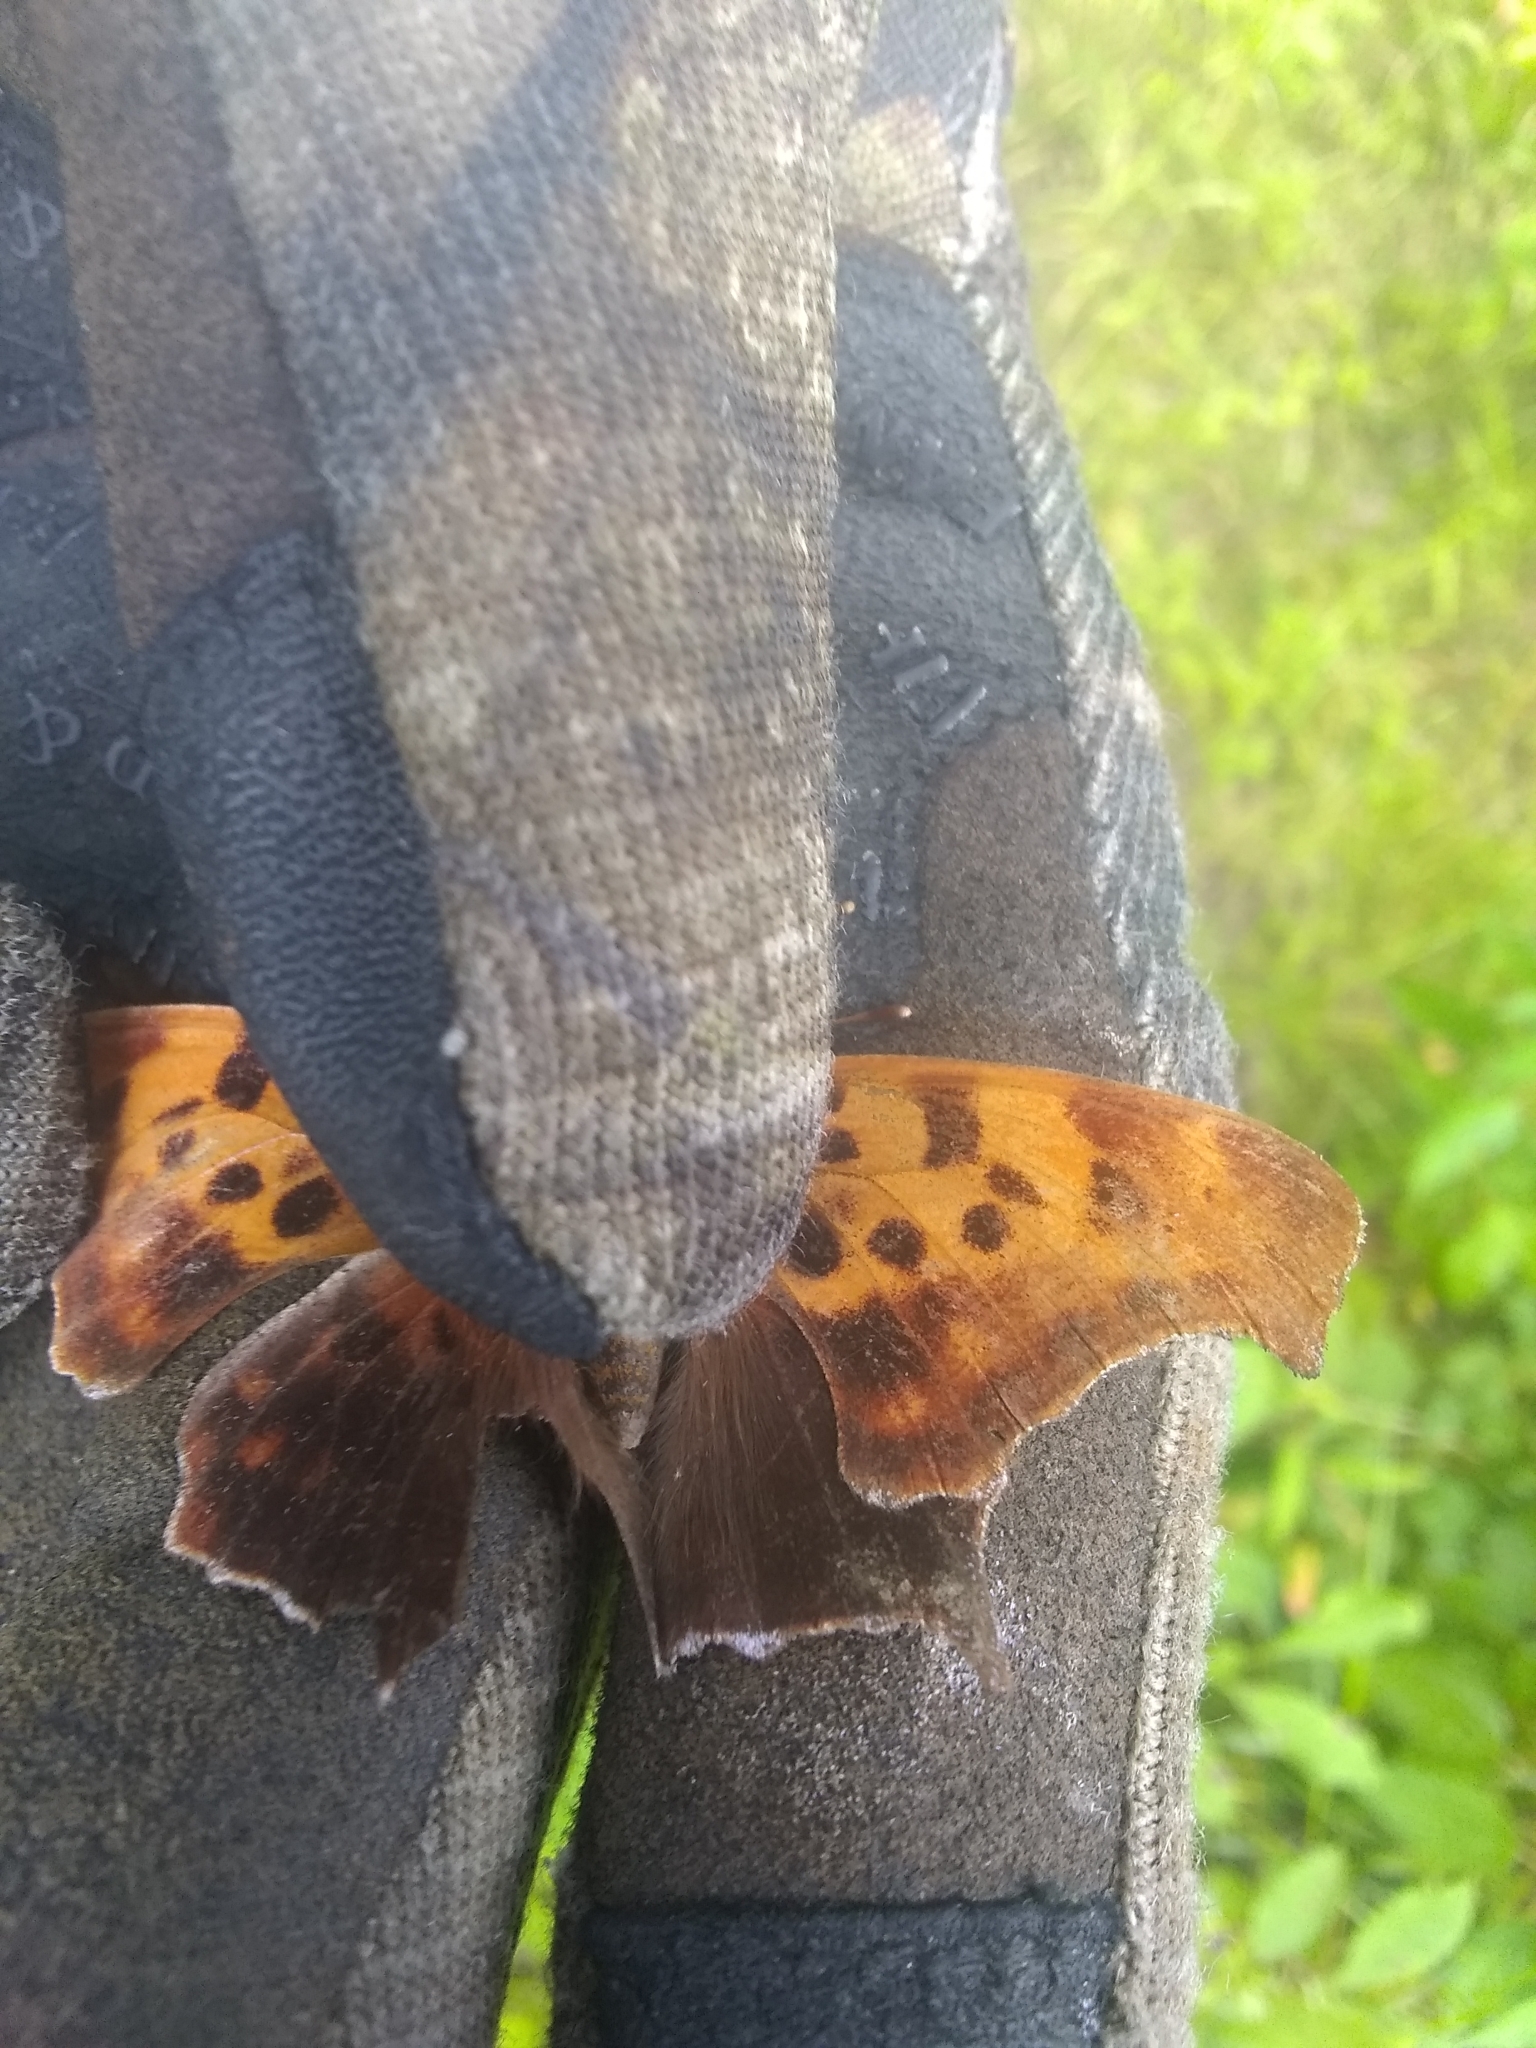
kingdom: Animalia
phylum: Arthropoda
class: Insecta
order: Lepidoptera
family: Nymphalidae
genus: Polygonia
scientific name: Polygonia interrogationis
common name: Question mark
